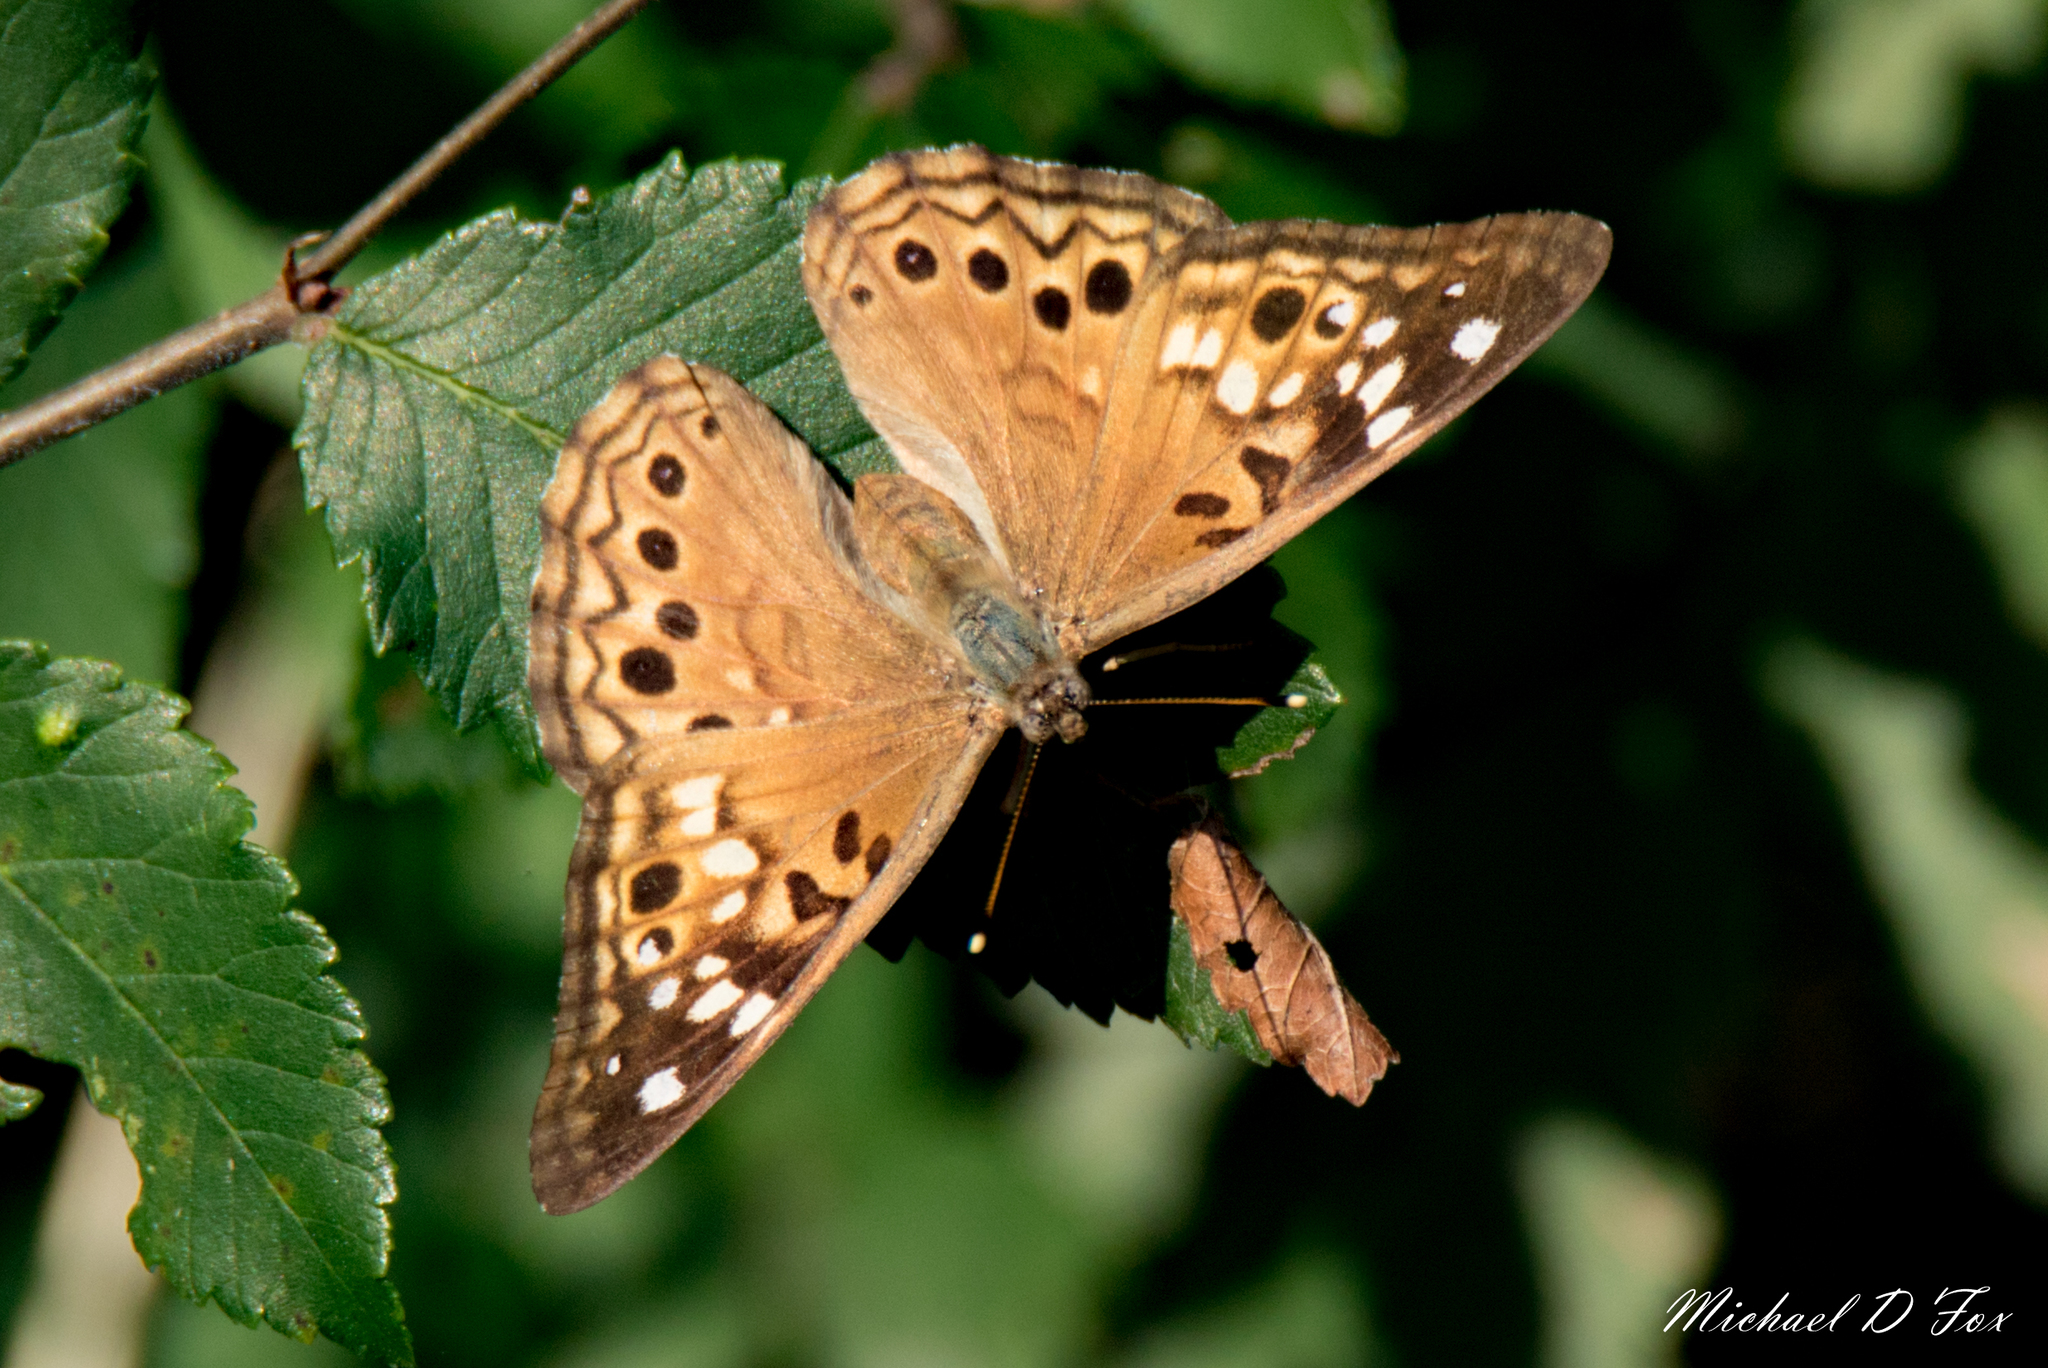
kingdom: Animalia
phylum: Arthropoda
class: Insecta
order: Lepidoptera
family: Nymphalidae
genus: Asterocampa
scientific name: Asterocampa celtis
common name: Hackberry emperor
